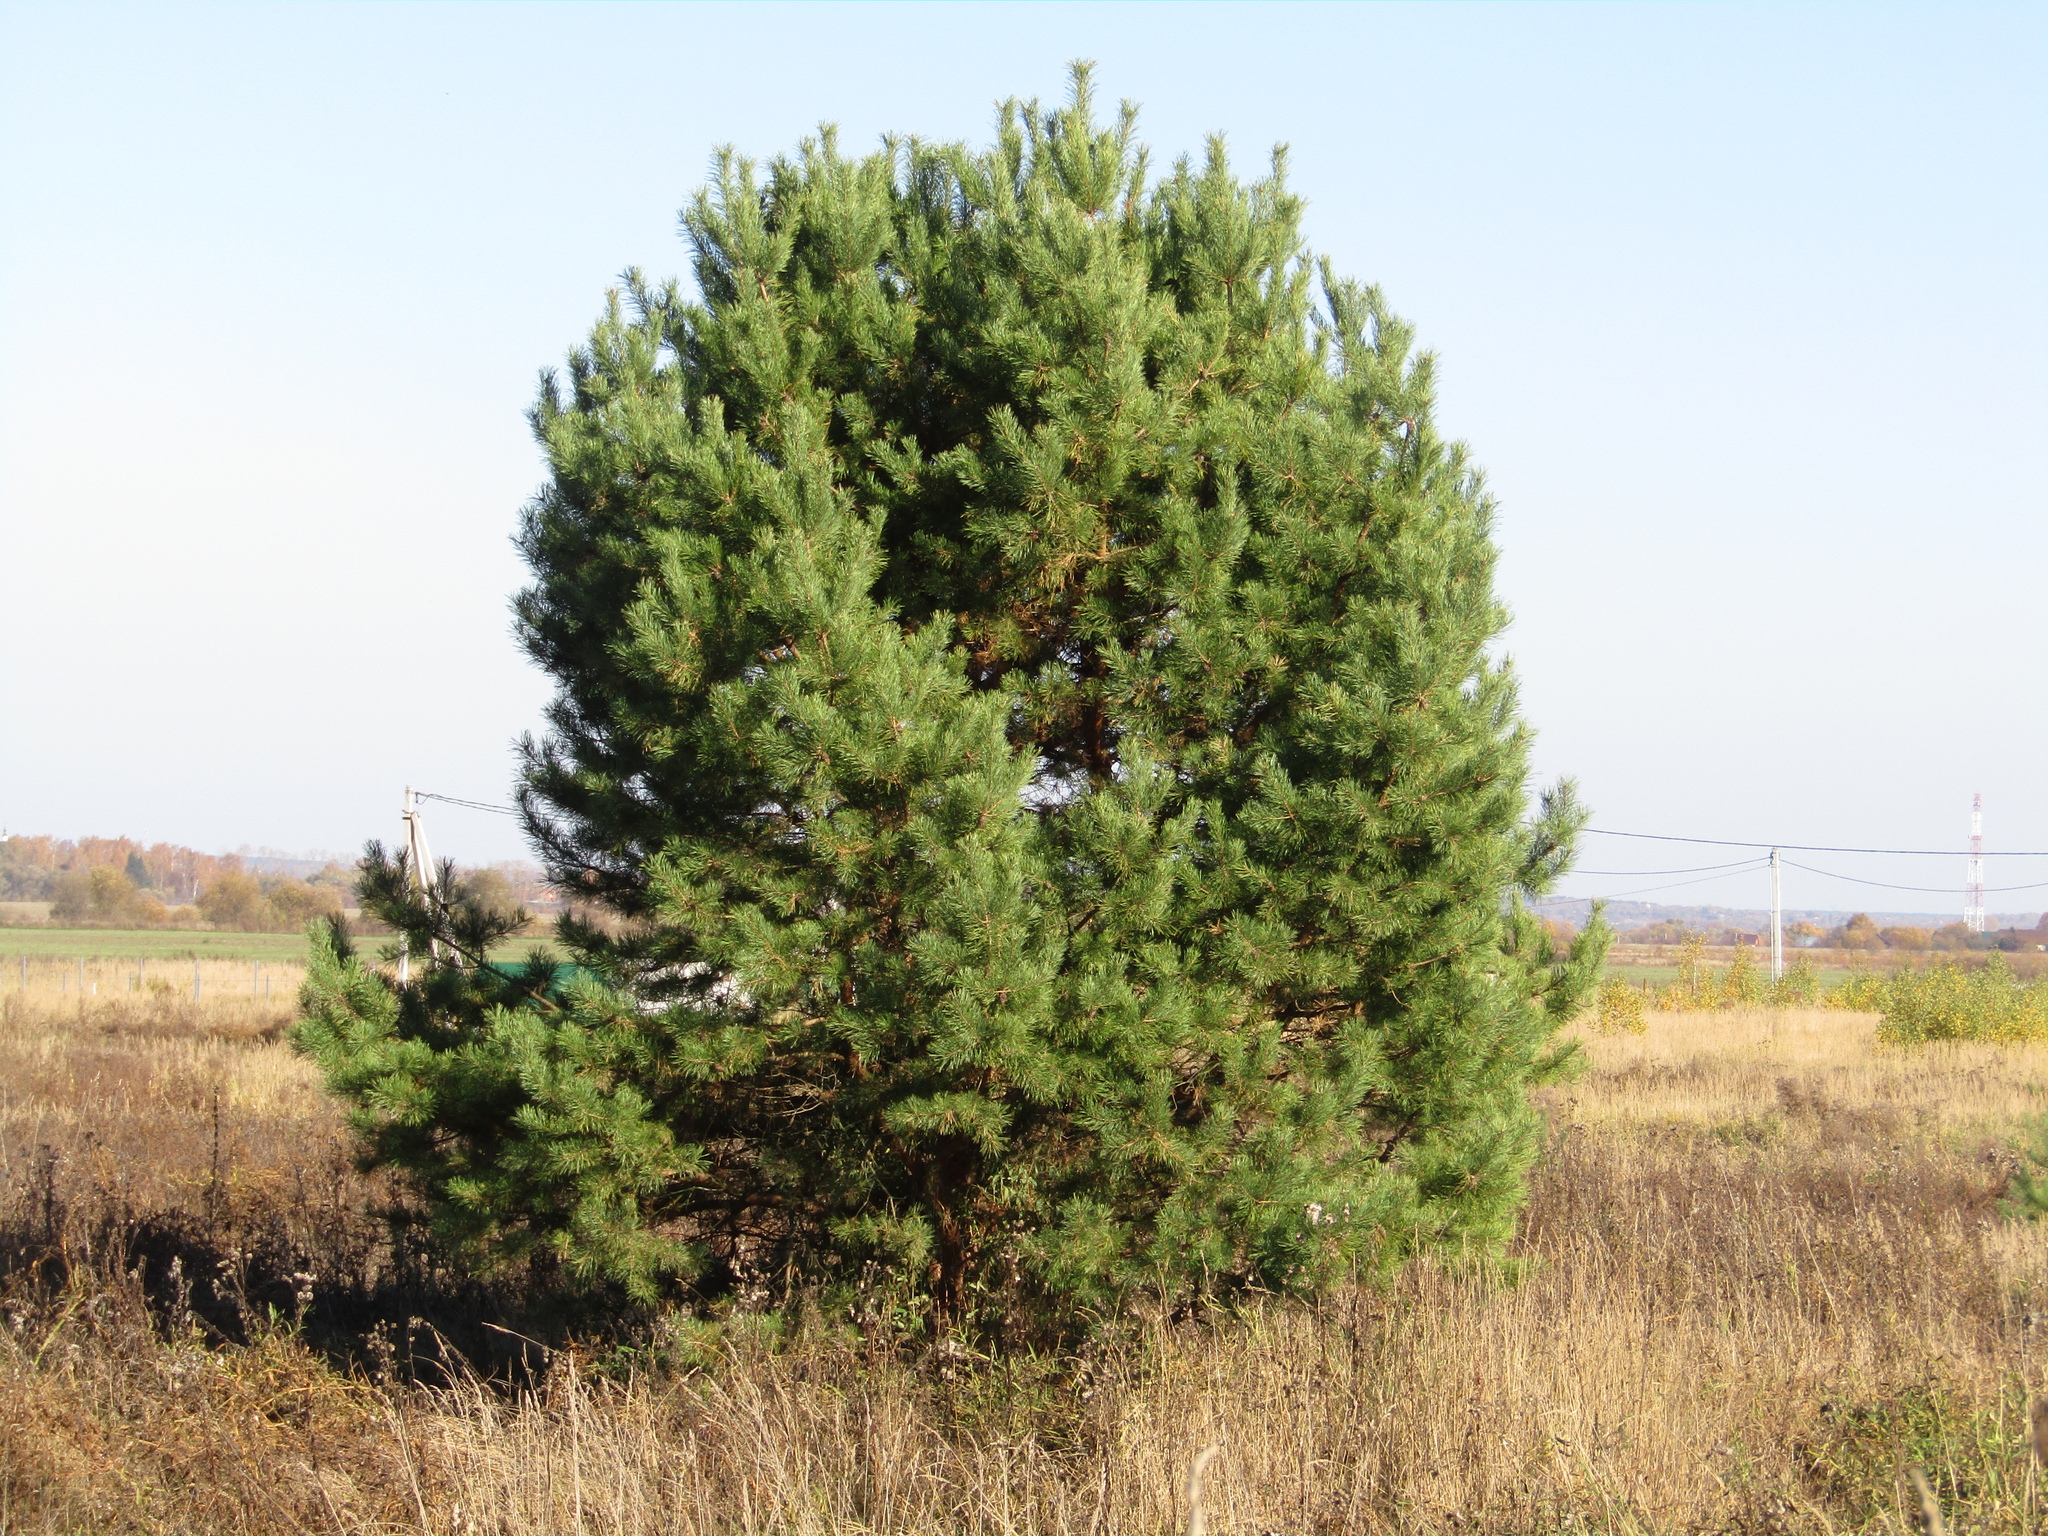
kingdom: Plantae
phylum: Tracheophyta
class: Pinopsida
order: Pinales
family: Pinaceae
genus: Pinus
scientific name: Pinus sylvestris
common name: Scots pine
